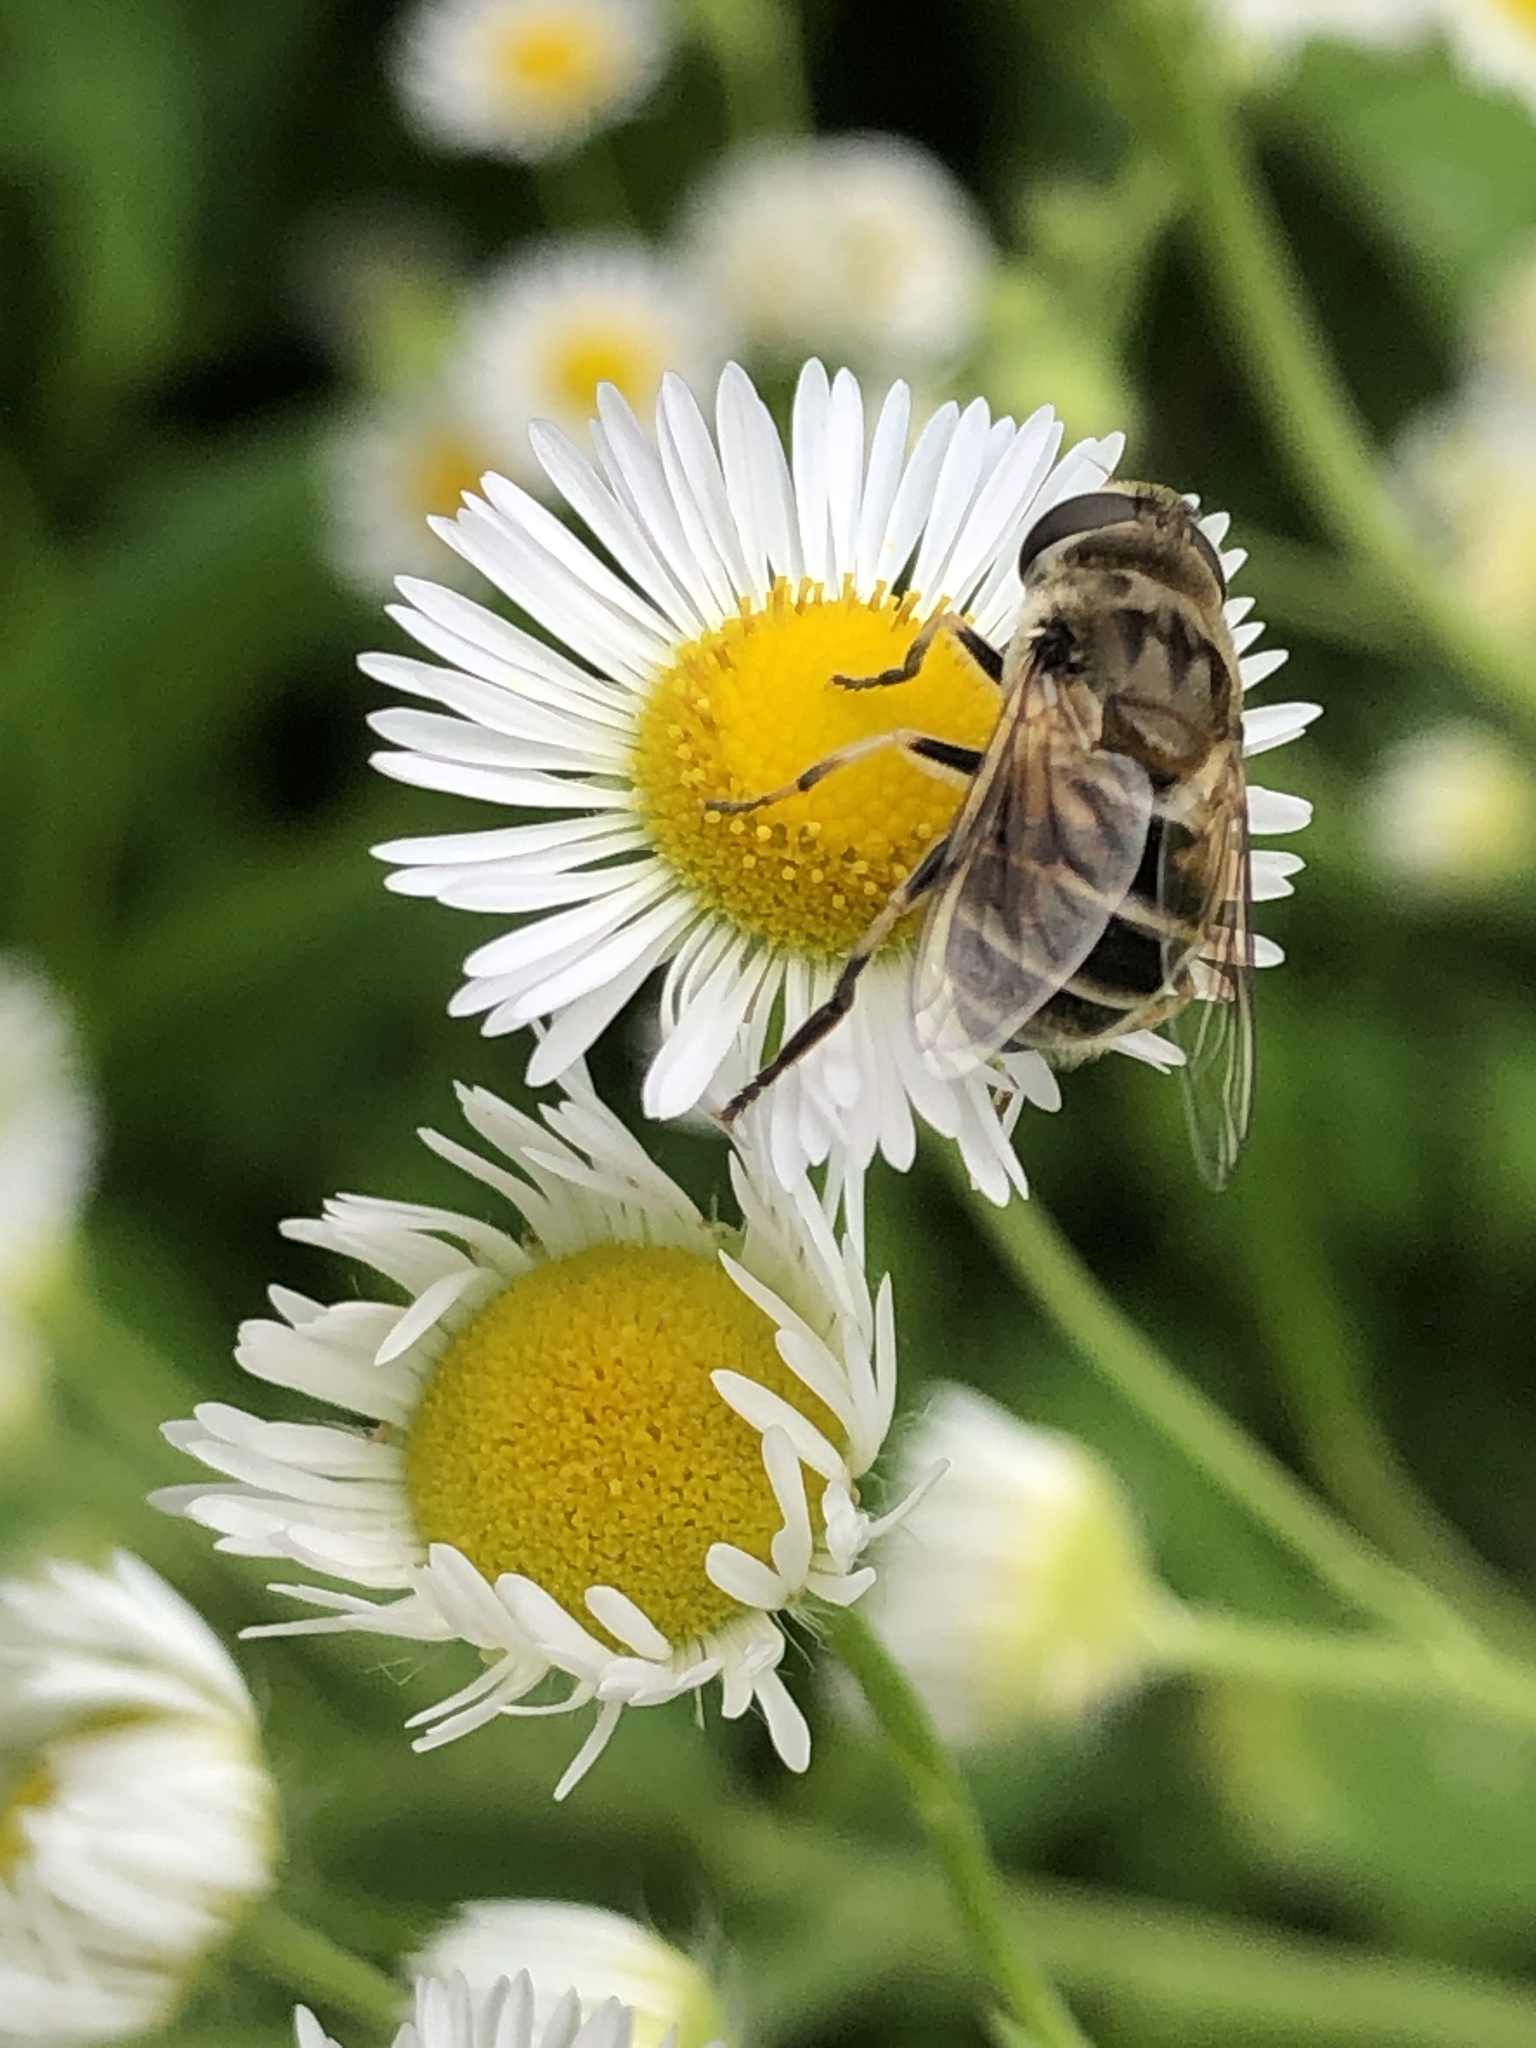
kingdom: Animalia
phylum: Arthropoda
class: Insecta
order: Diptera
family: Syrphidae
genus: Eristalis
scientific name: Eristalis arbustorum
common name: Hover fly
